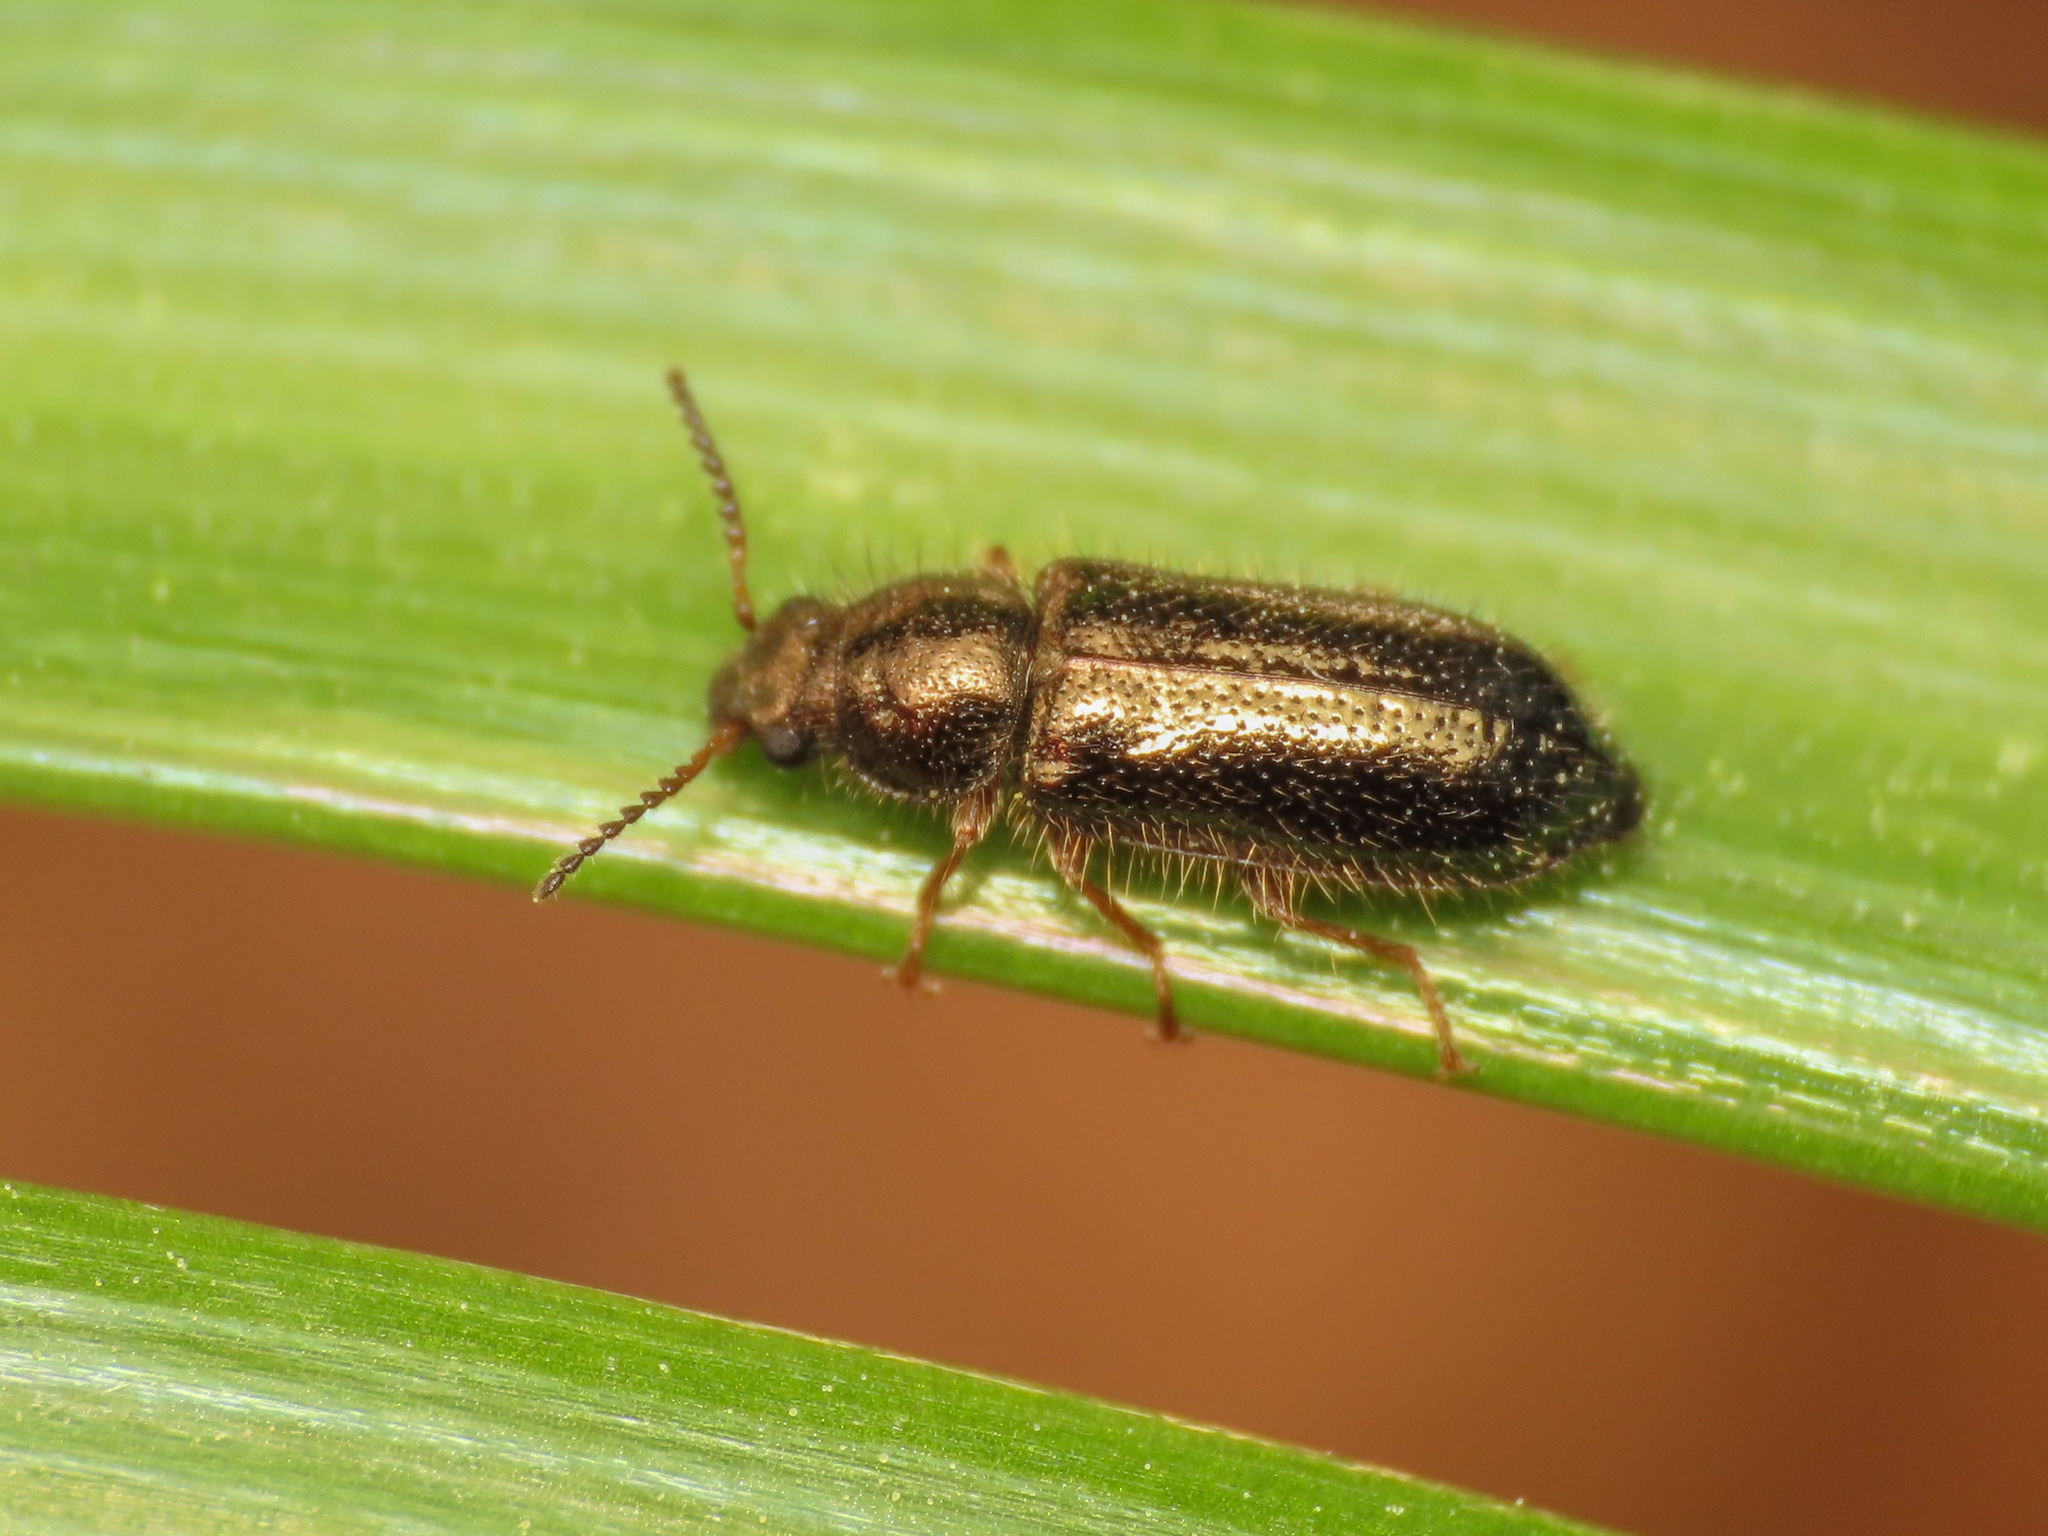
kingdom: Animalia
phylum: Arthropoda
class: Insecta
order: Coleoptera
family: Dasytidae
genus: Aplocnemus
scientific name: Aplocnemus nigricornis
